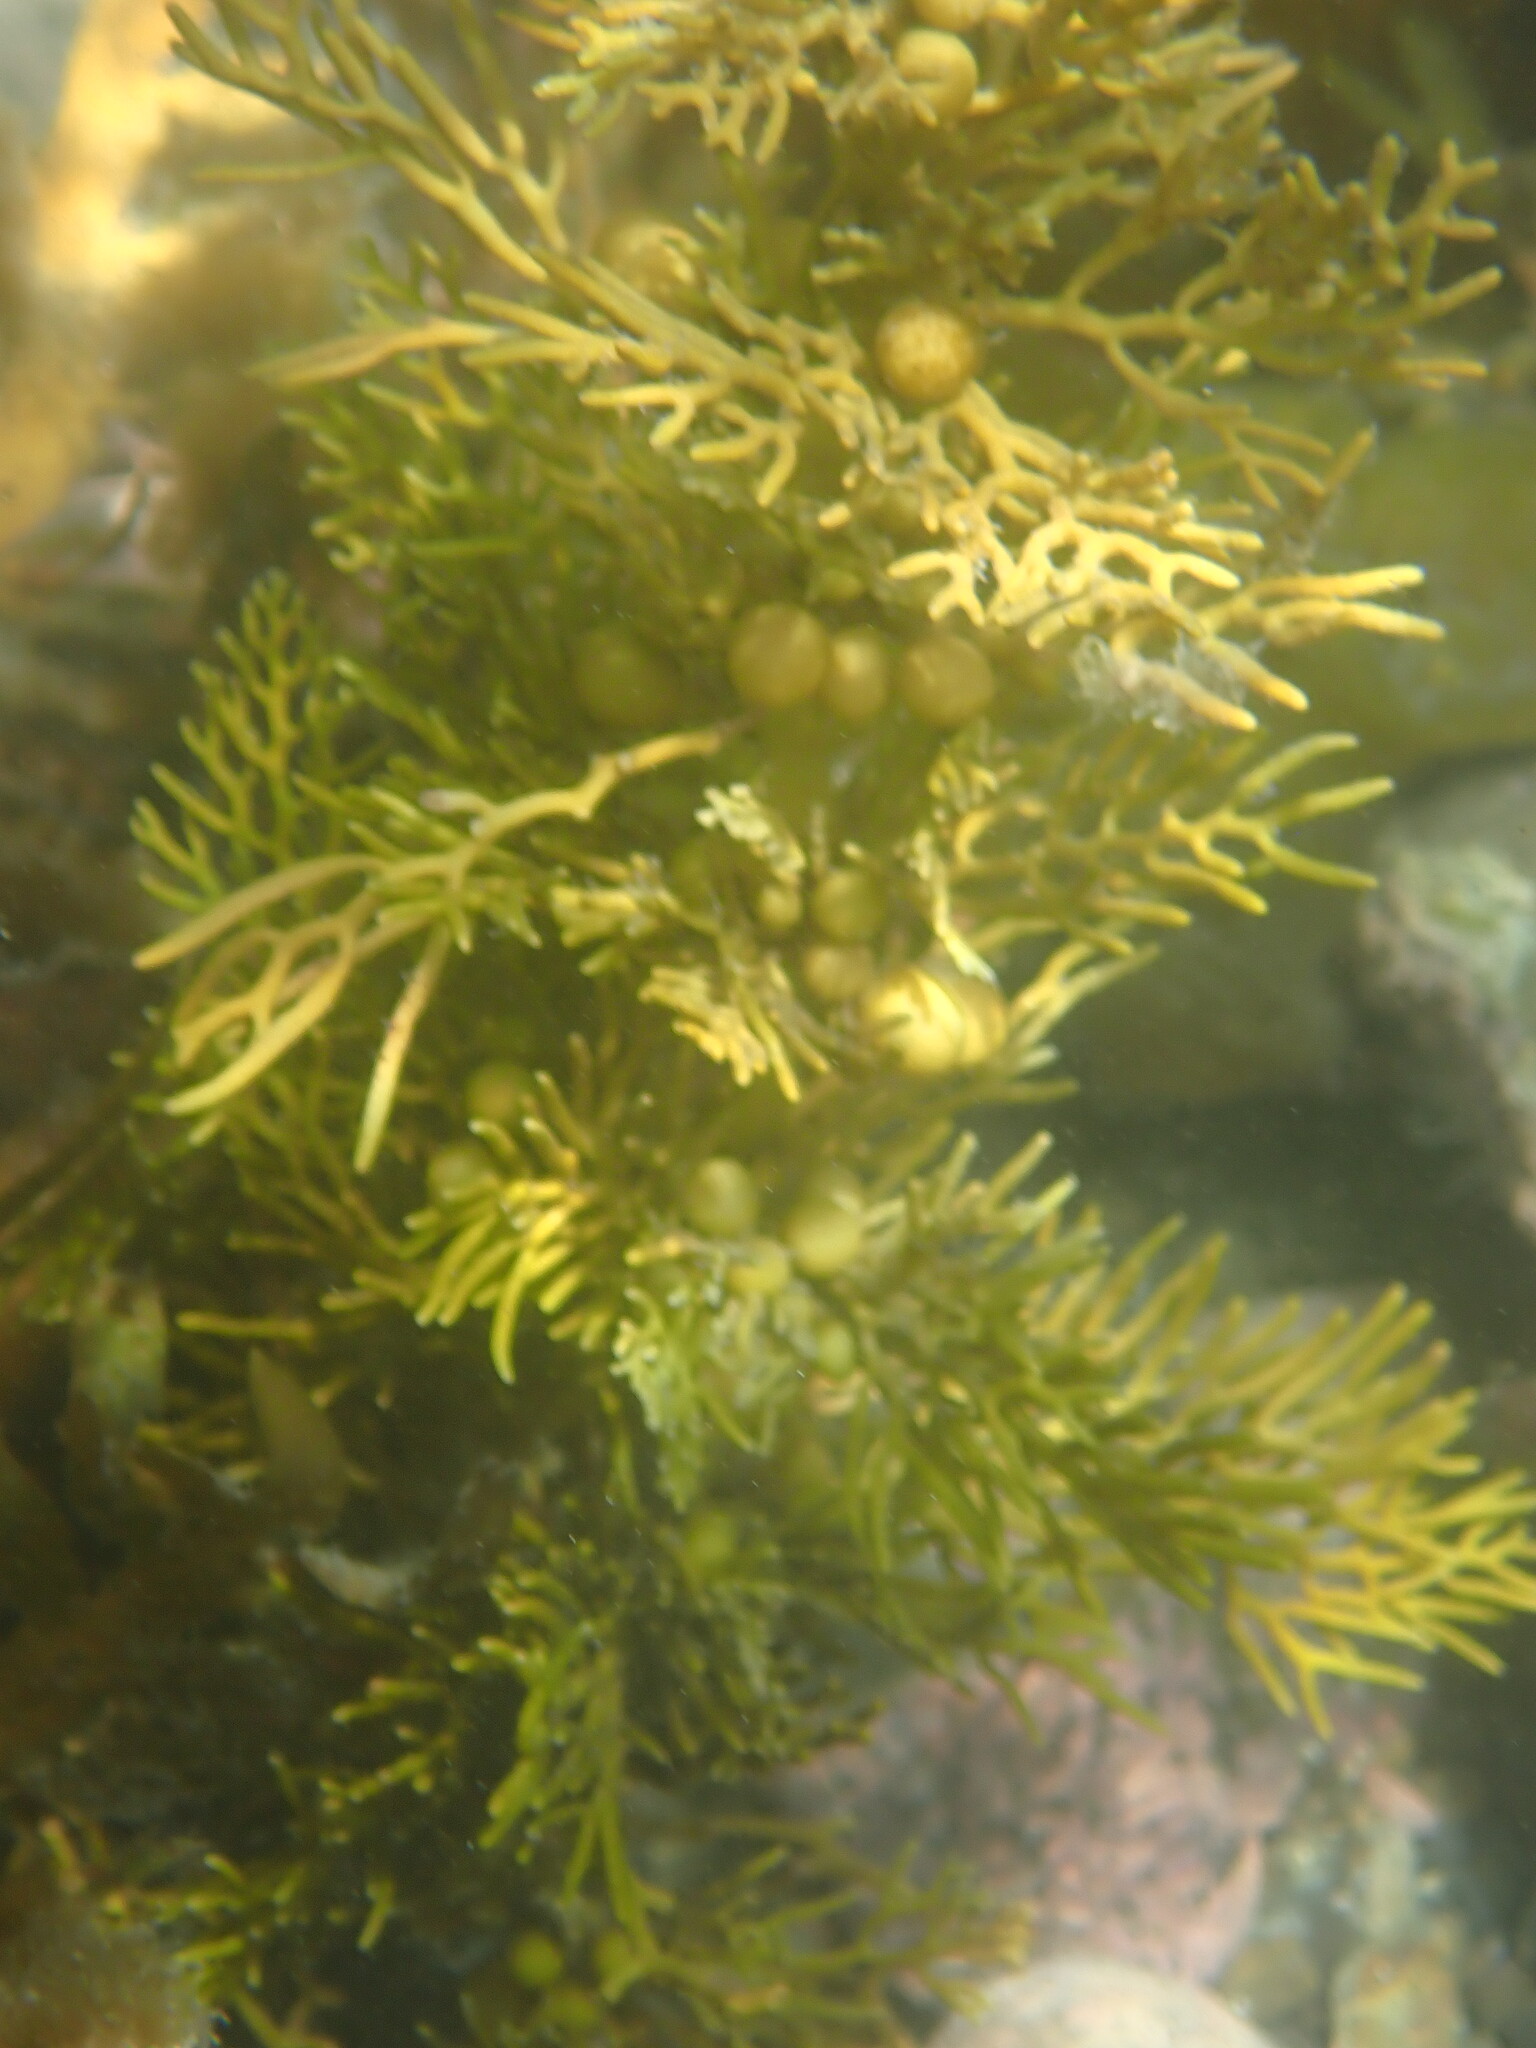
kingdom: Chromista
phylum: Ochrophyta
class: Phaeophyceae
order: Fucales
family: Sargassaceae
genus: Cystophora
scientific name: Cystophora scalaris
